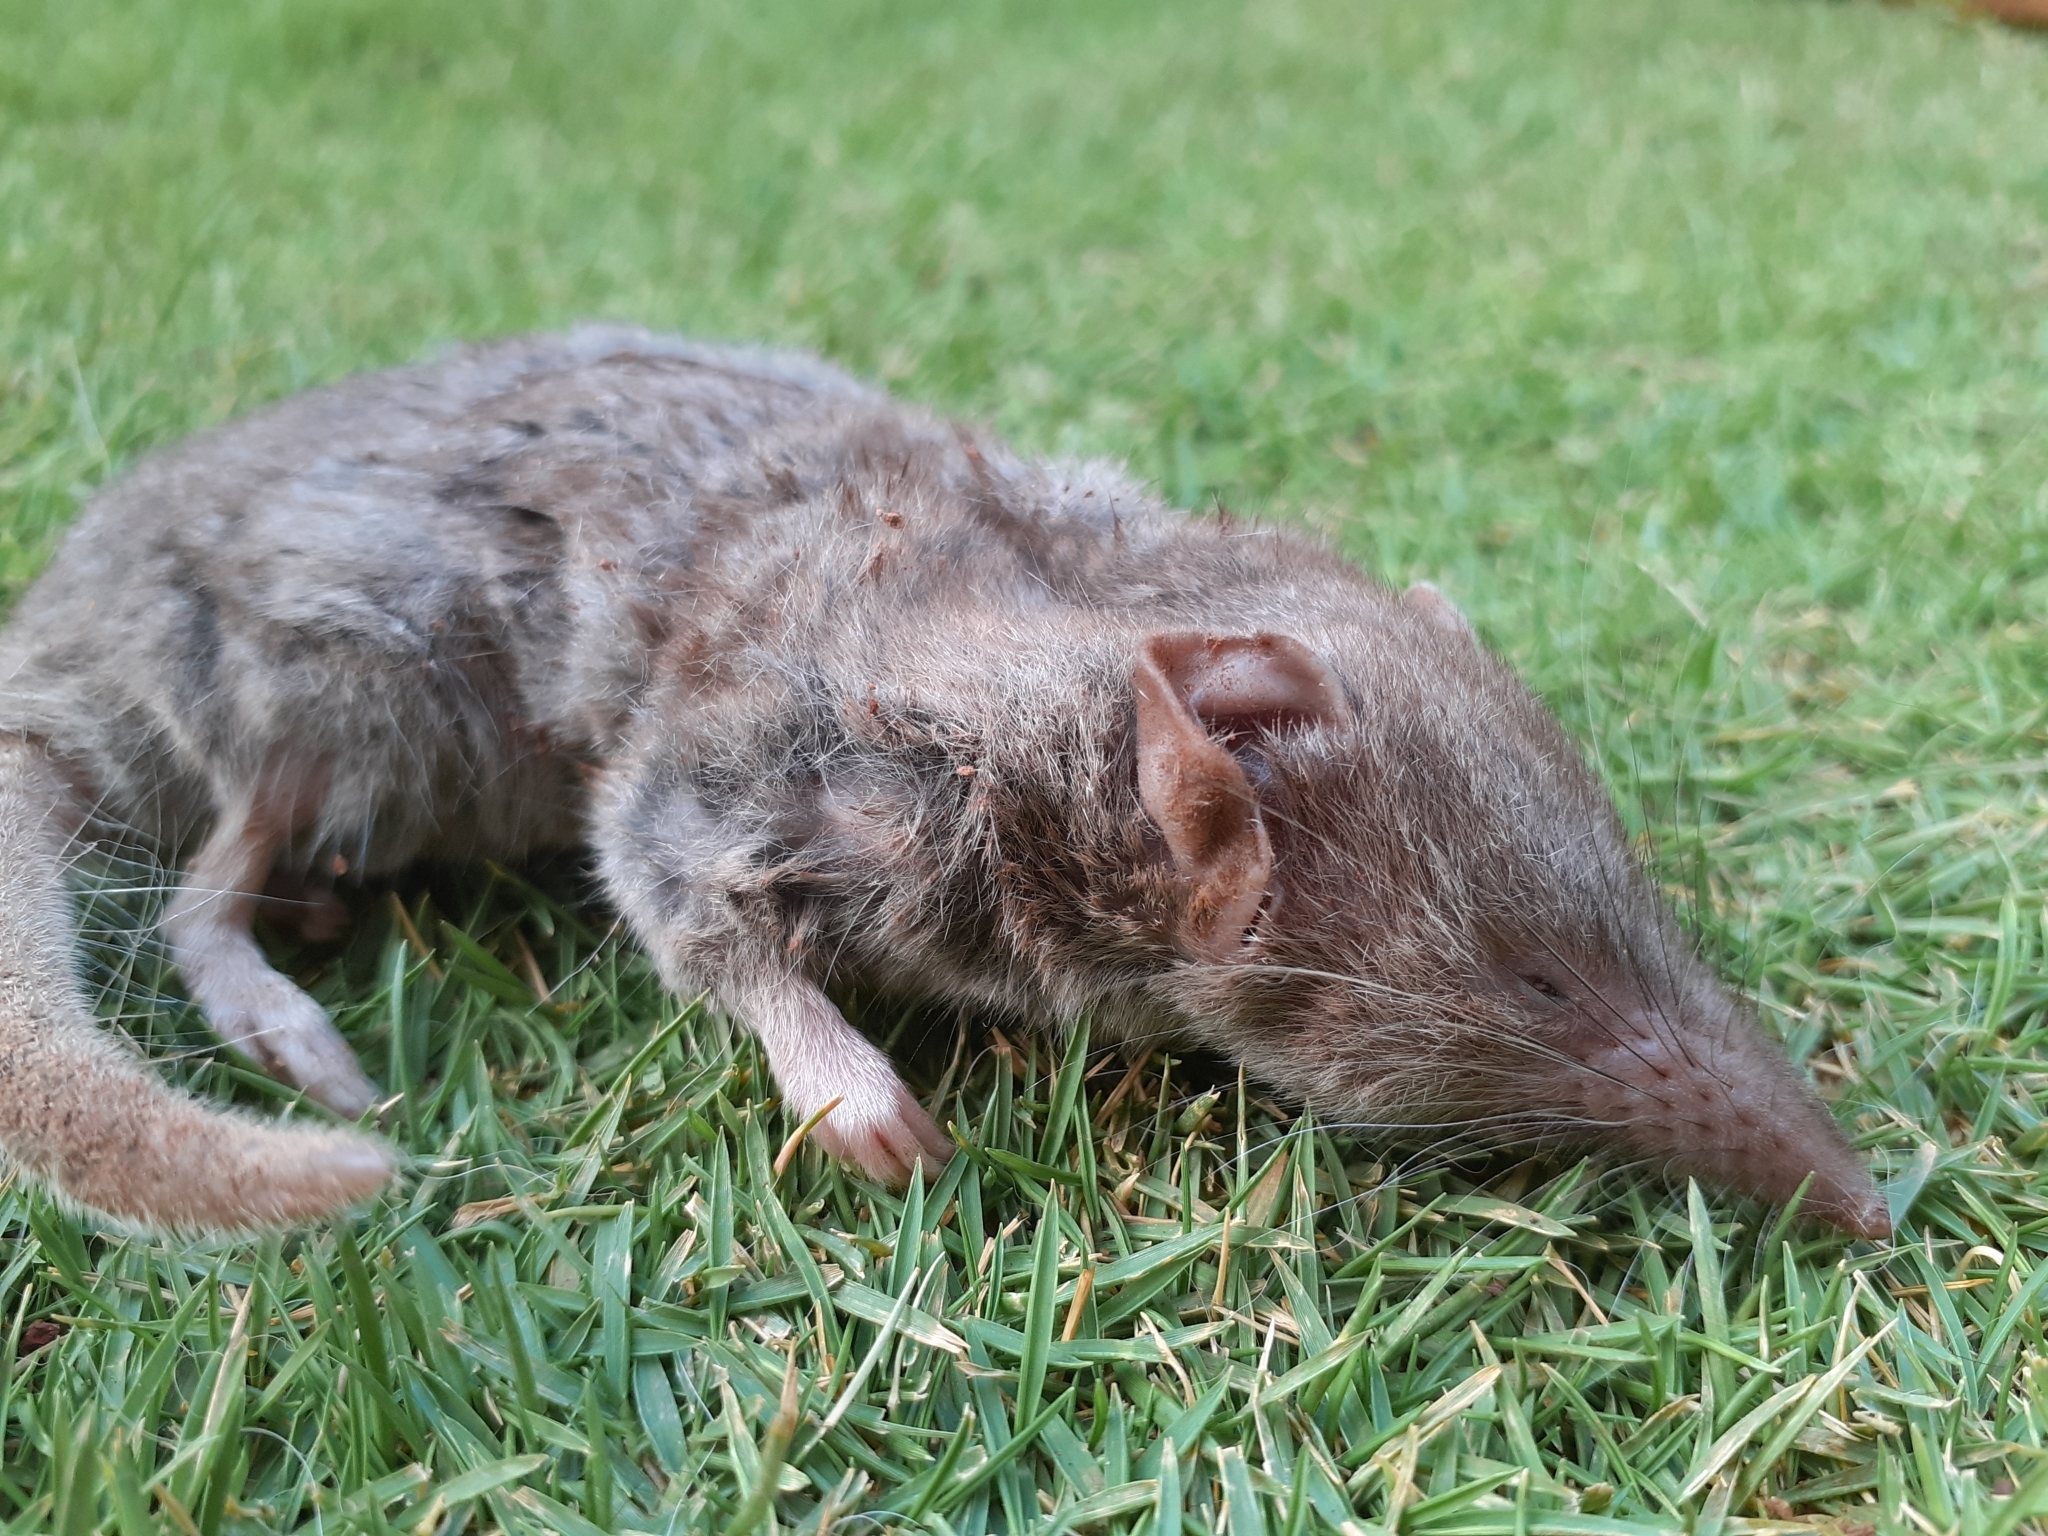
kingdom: Animalia
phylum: Chordata
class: Mammalia
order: Soricomorpha
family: Soricidae
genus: Suncus
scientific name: Suncus murinus
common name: Asian house shrew
